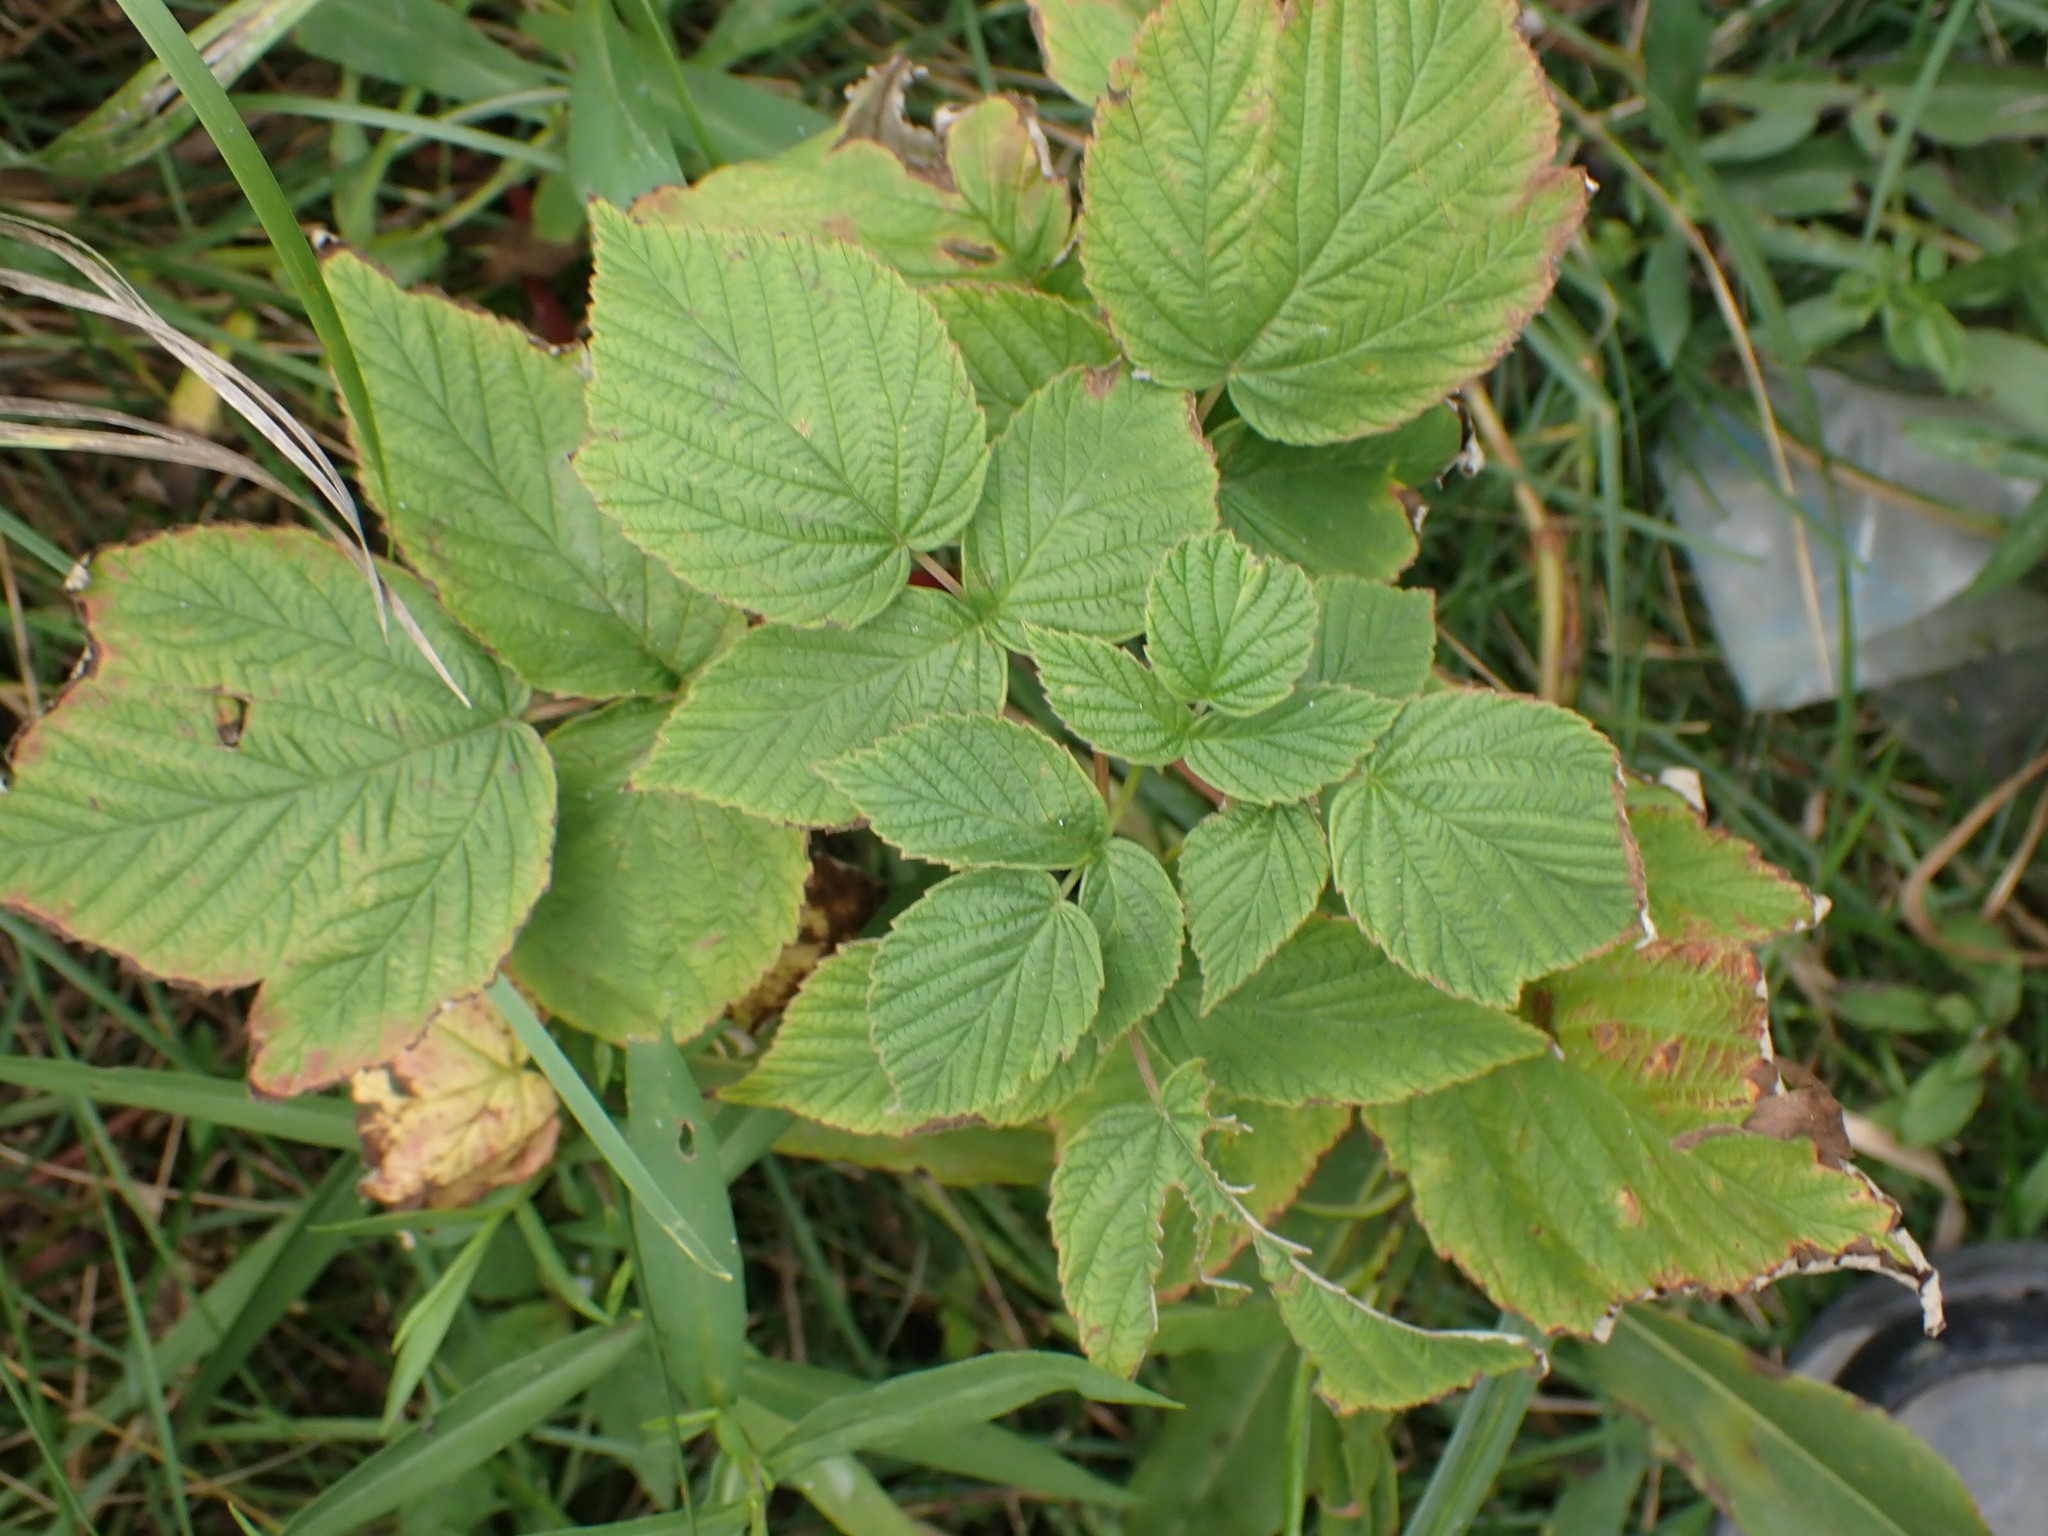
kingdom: Plantae
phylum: Tracheophyta
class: Magnoliopsida
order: Rosales
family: Rosaceae
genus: Rubus
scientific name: Rubus idaeus
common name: Raspberry
